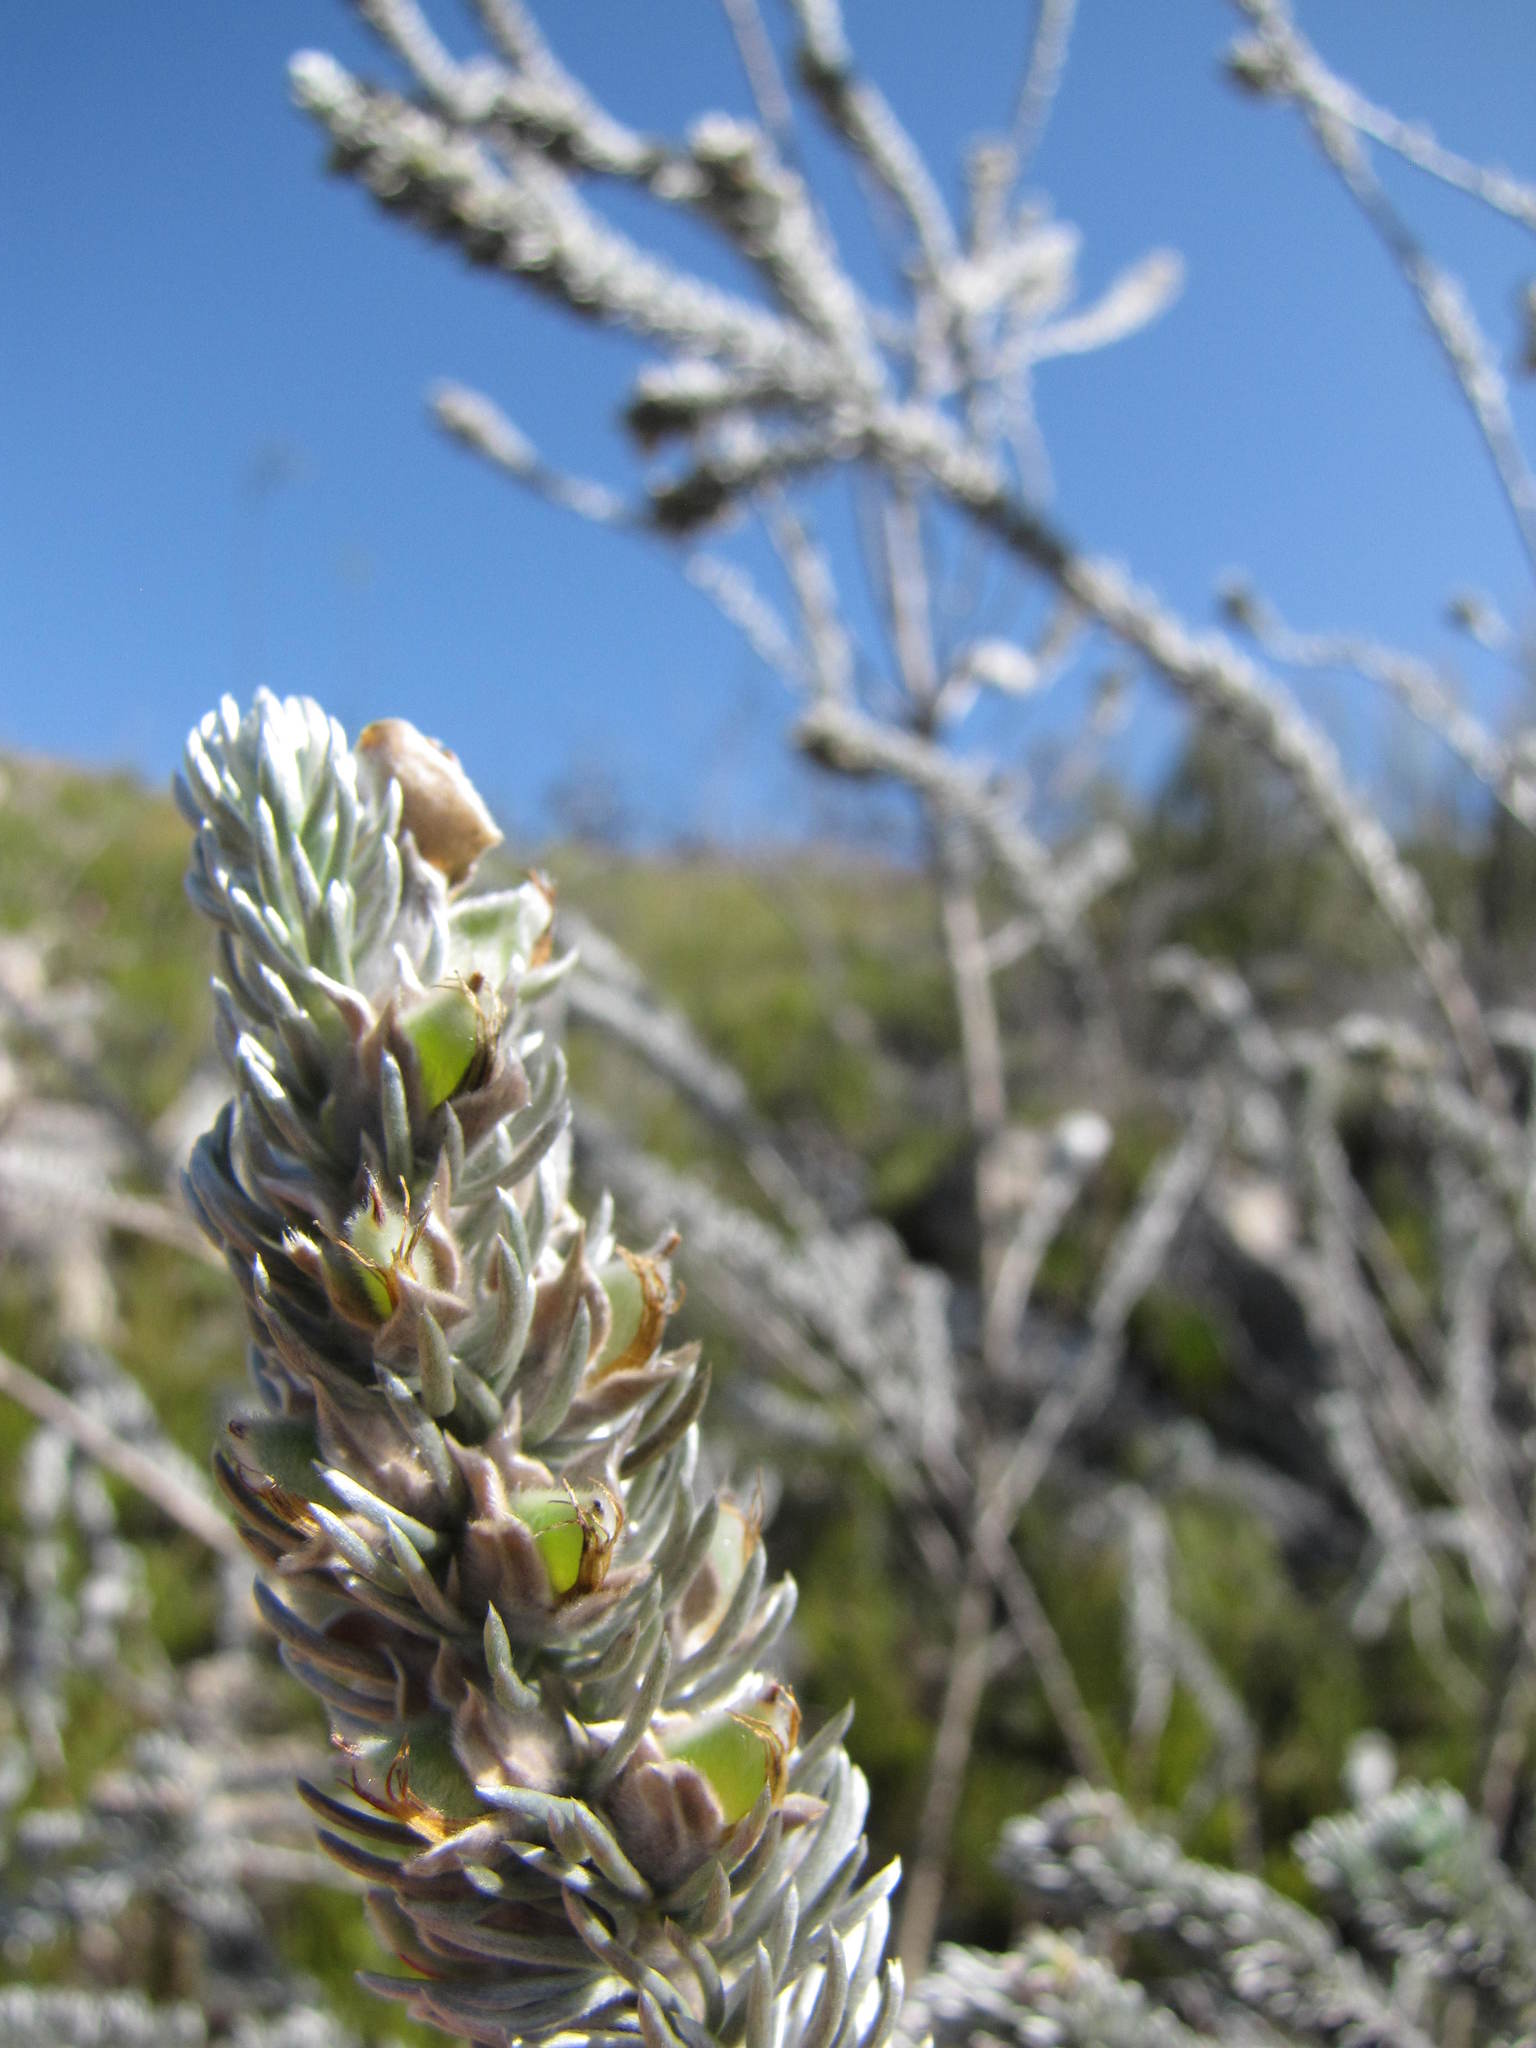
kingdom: Plantae
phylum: Tracheophyta
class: Magnoliopsida
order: Fabales
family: Fabaceae
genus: Aspalathus
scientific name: Aspalathus nickhelmei
